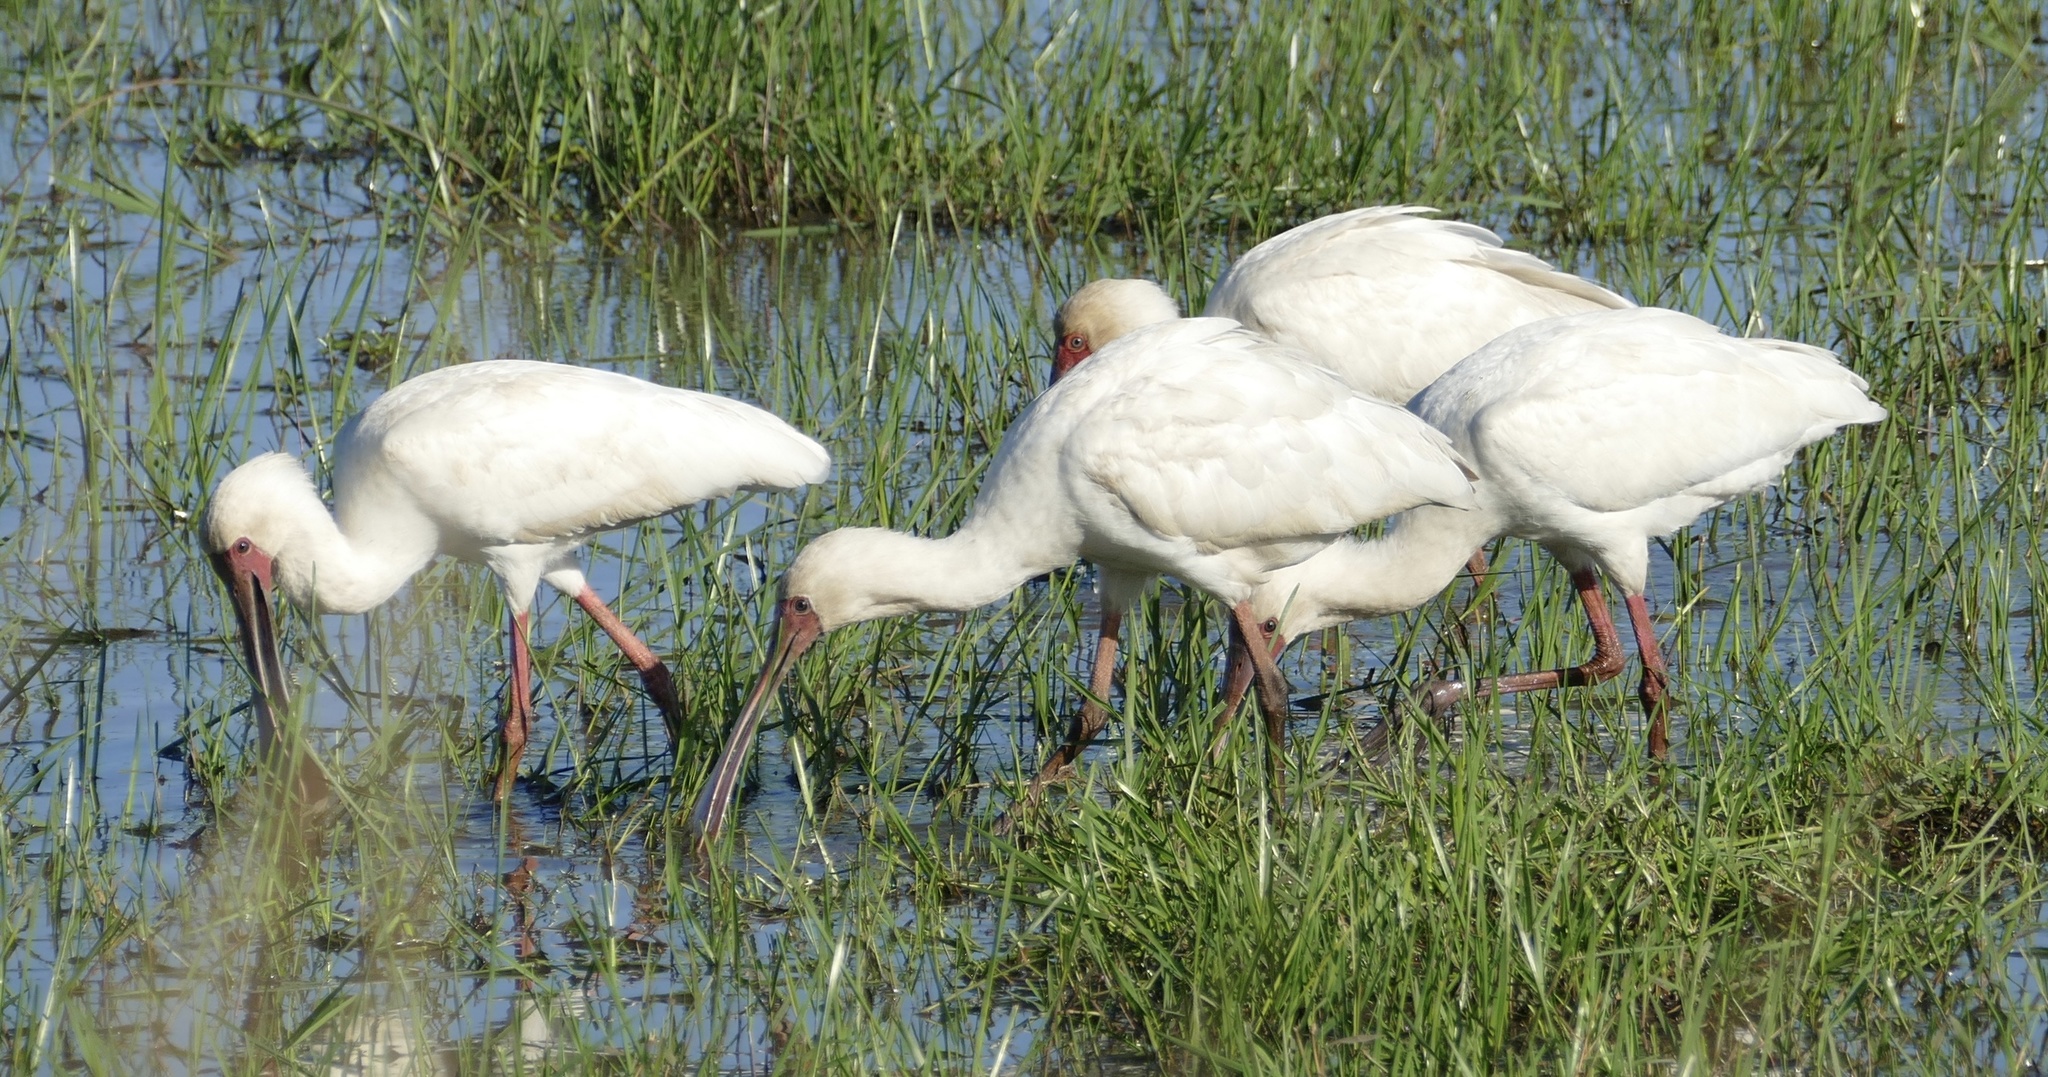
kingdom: Animalia
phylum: Chordata
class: Aves
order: Pelecaniformes
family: Threskiornithidae
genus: Platalea
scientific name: Platalea alba
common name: African spoonbill
